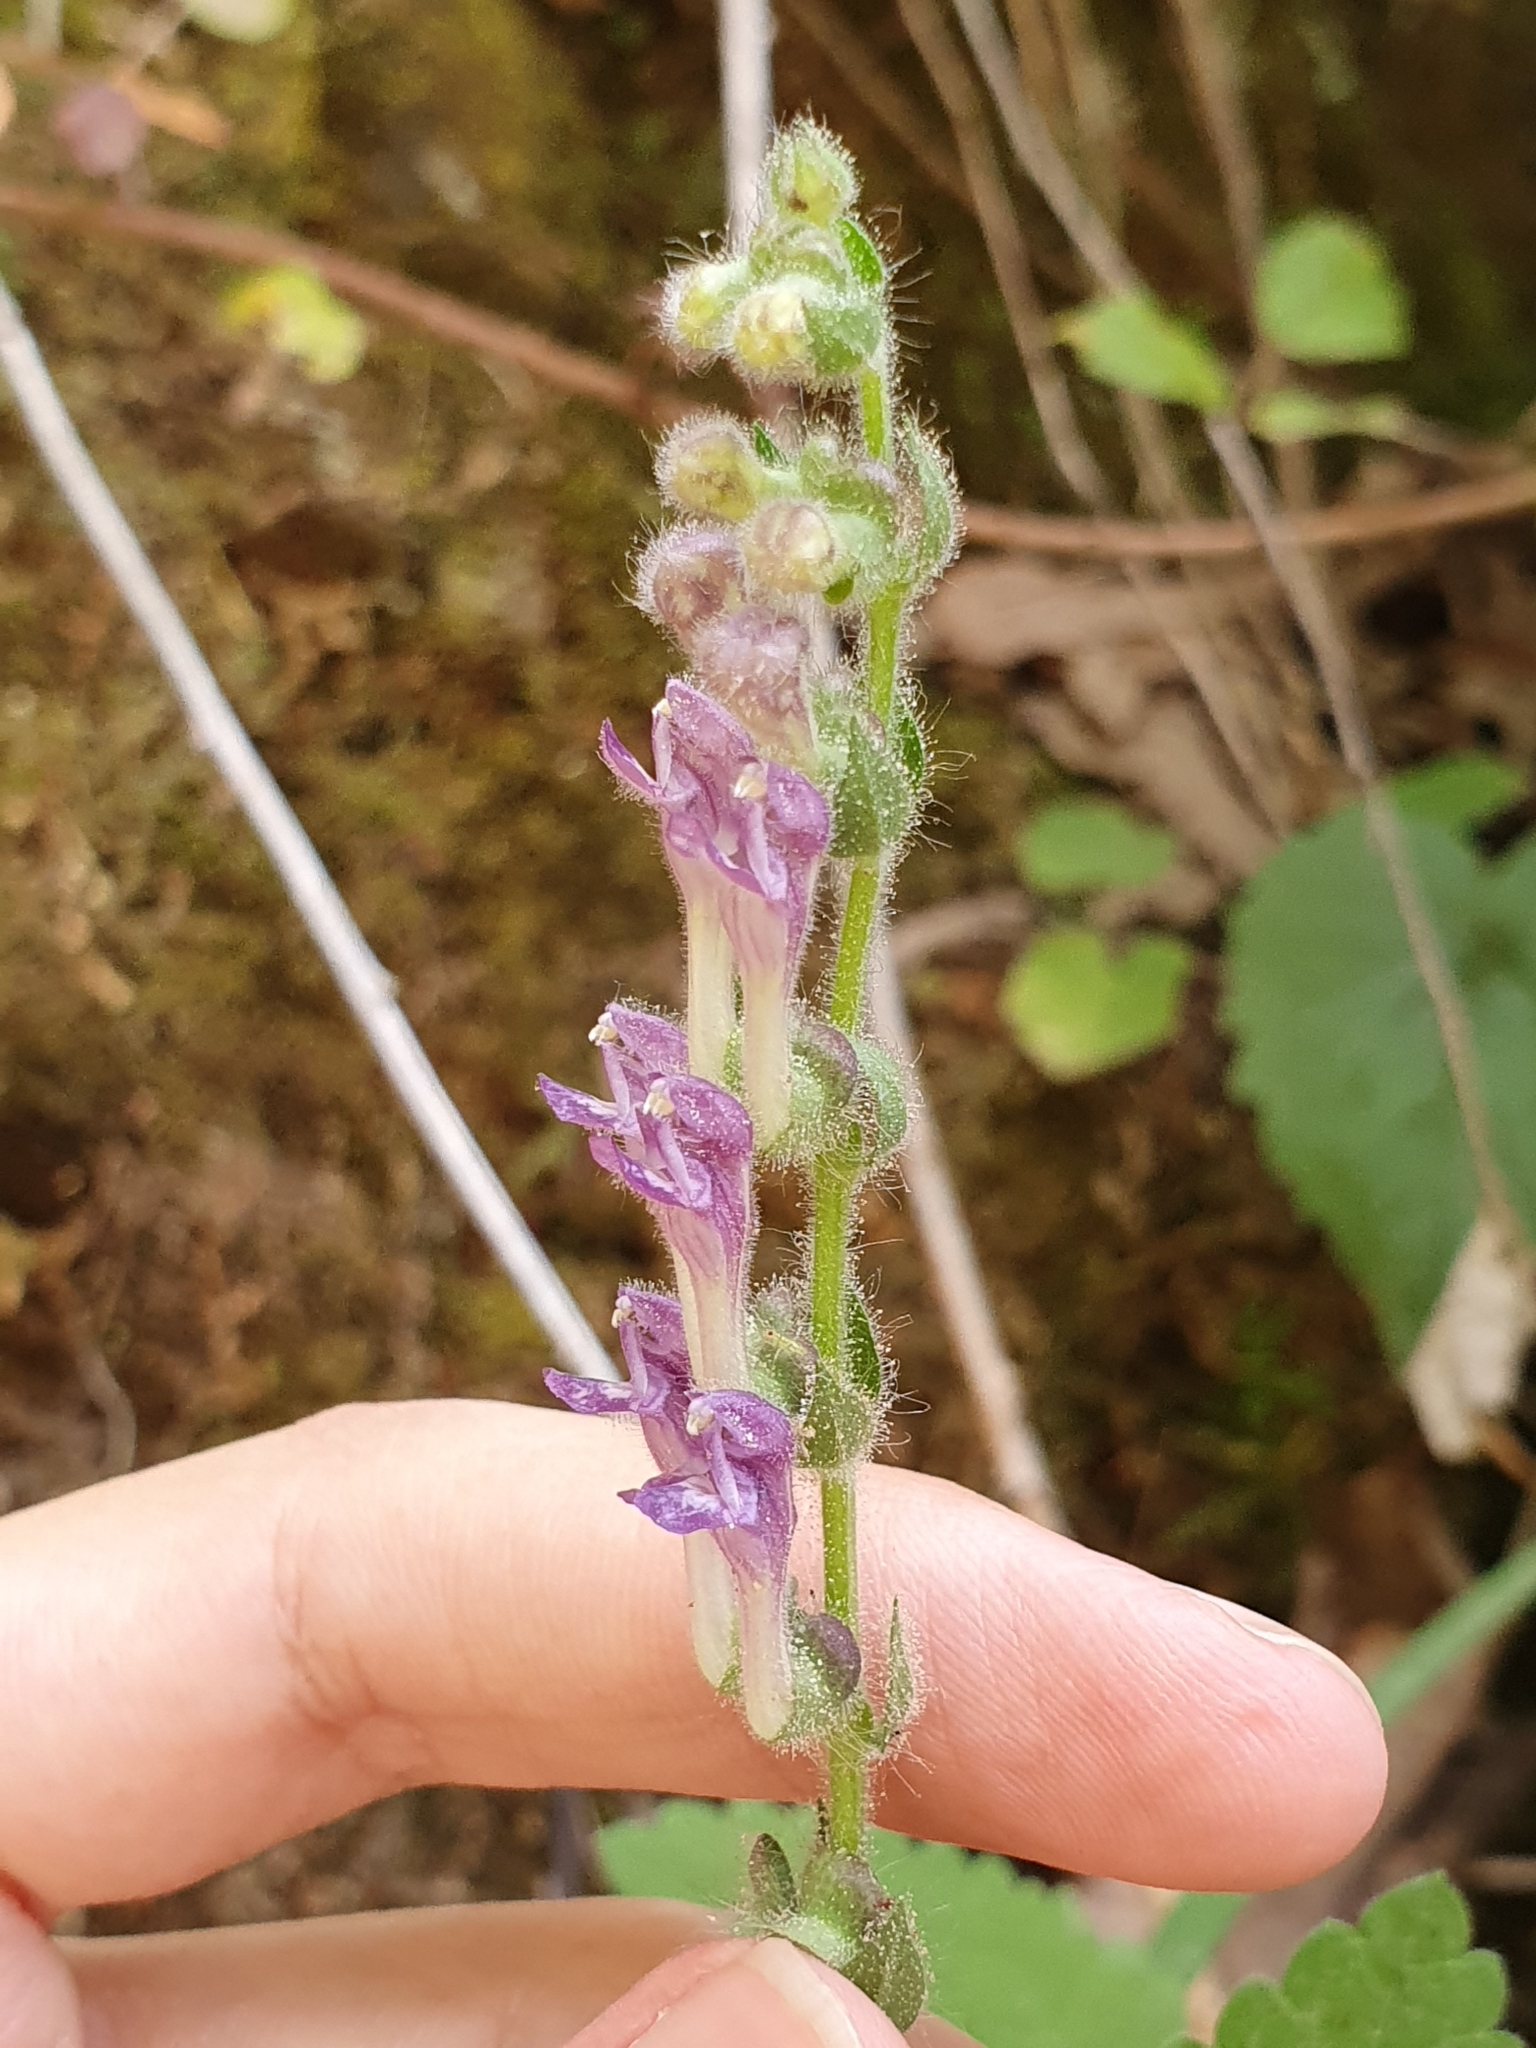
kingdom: Plantae
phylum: Tracheophyta
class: Magnoliopsida
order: Lamiales
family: Lamiaceae
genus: Scutellaria
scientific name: Scutellaria columnae
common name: Large skullcap
